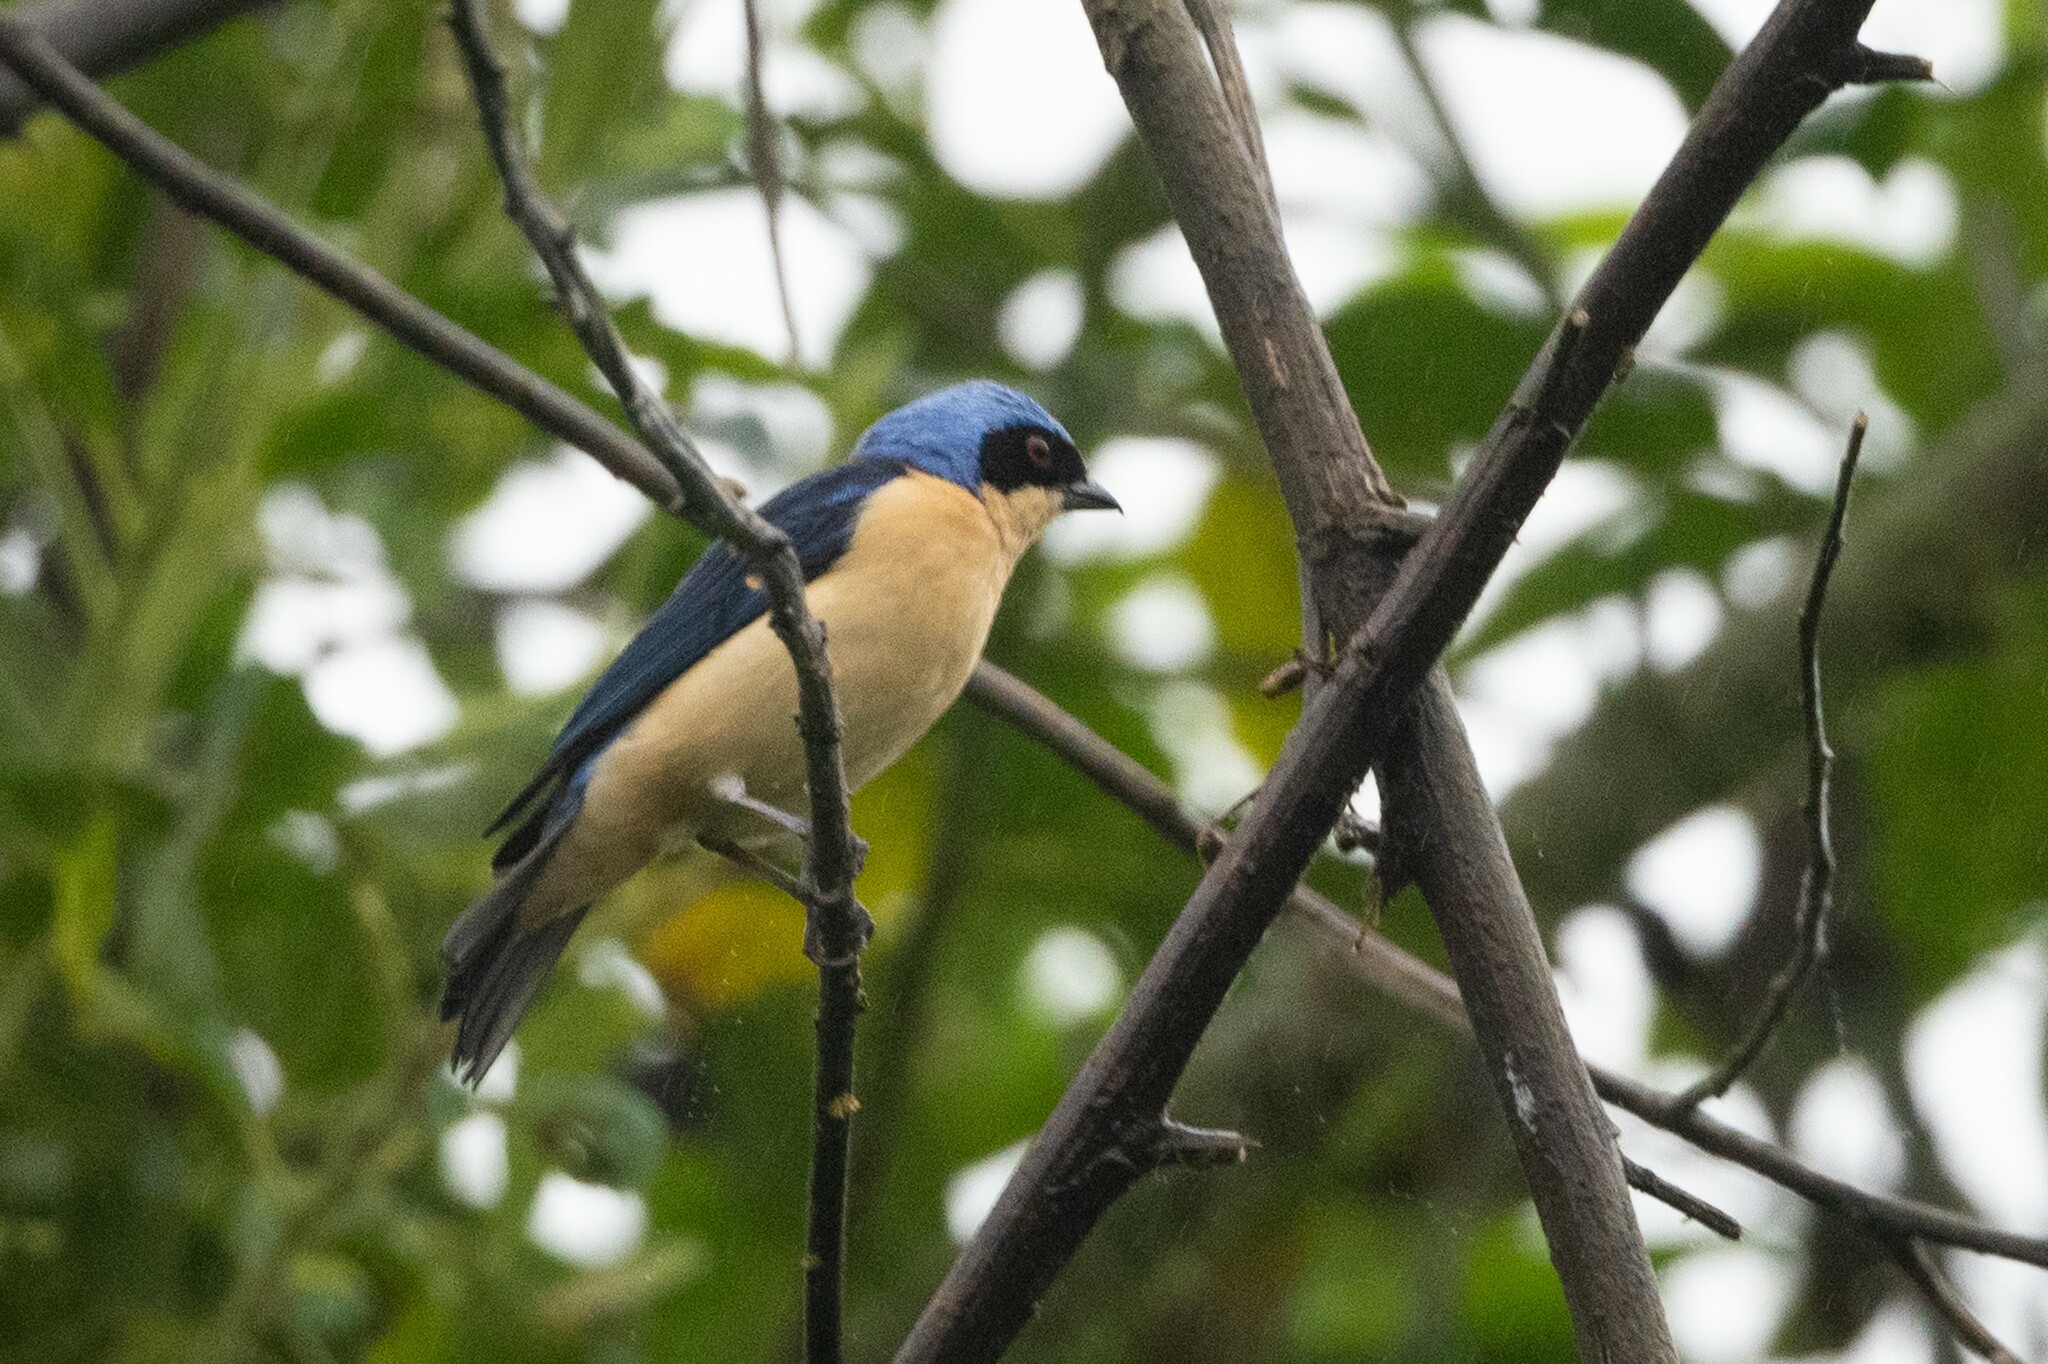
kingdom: Animalia
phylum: Chordata
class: Aves
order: Passeriformes
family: Thraupidae
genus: Pipraeidea
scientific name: Pipraeidea melanonota
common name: Fawn-breasted tanager
